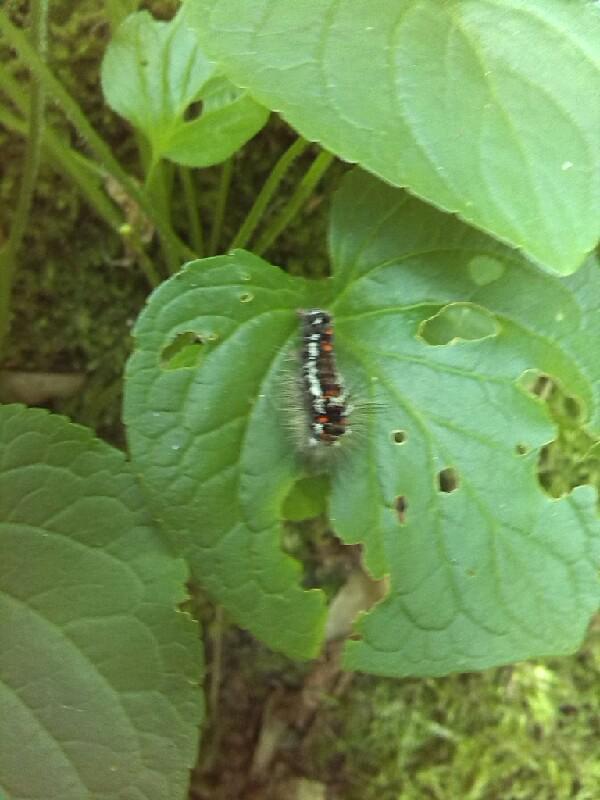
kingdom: Animalia
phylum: Arthropoda
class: Insecta
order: Lepidoptera
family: Erebidae
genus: Sphrageidus
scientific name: Sphrageidus similis
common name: Yellow-tail
